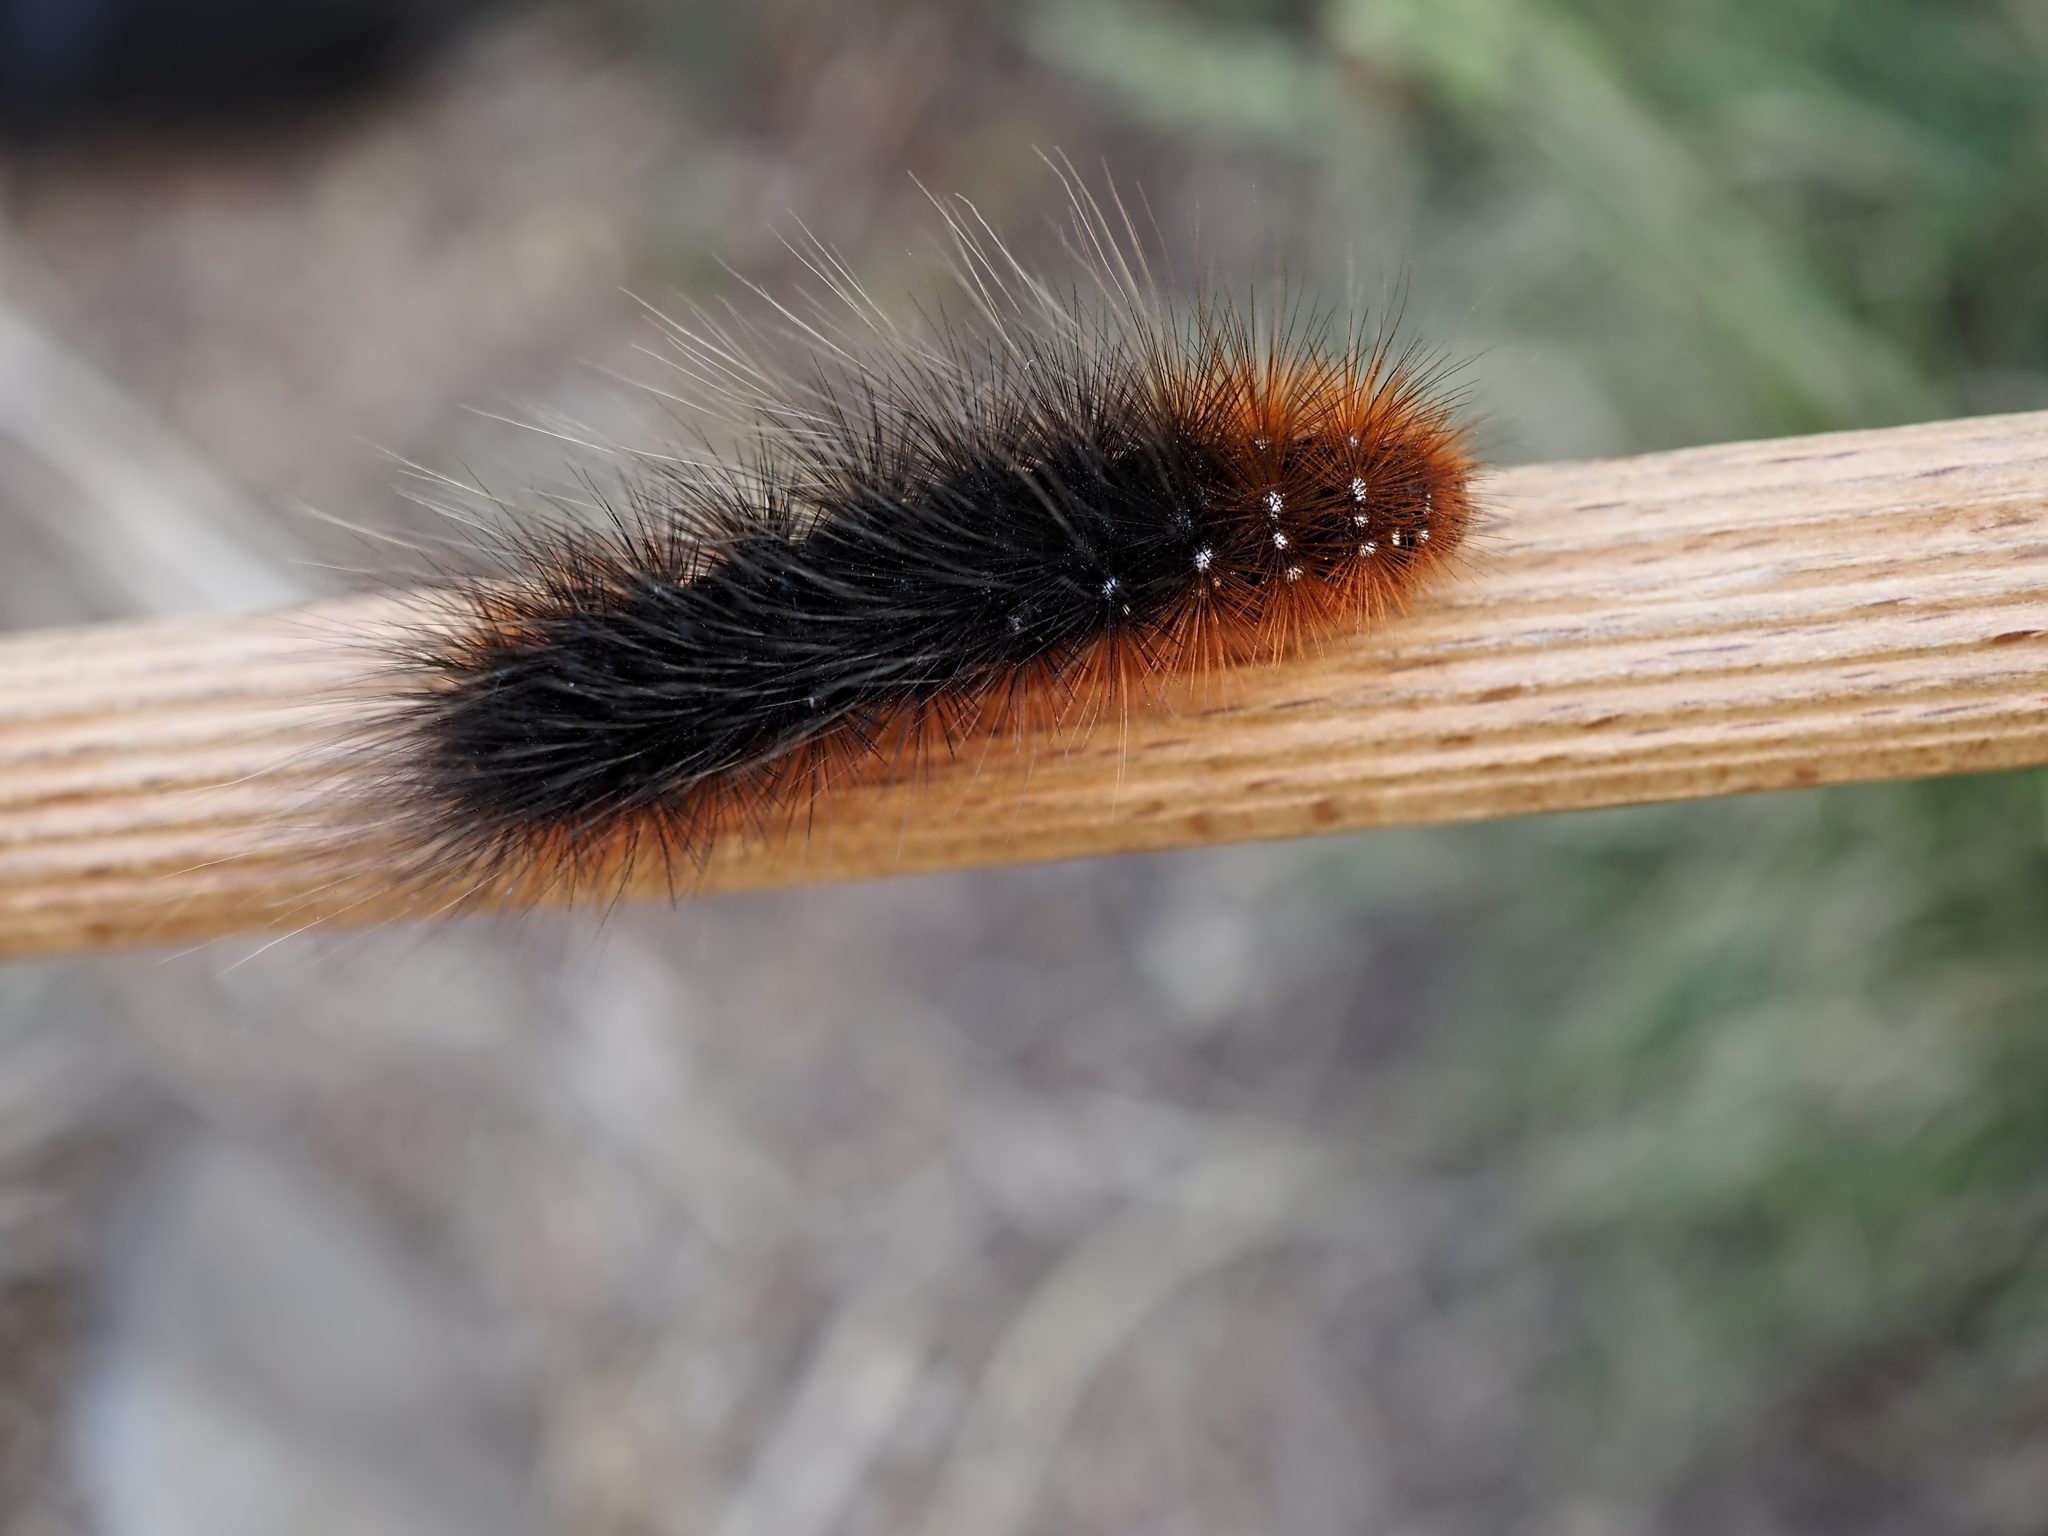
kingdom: Animalia
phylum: Arthropoda
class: Insecta
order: Lepidoptera
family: Erebidae
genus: Arctia
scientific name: Arctia caja
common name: Garden tiger
